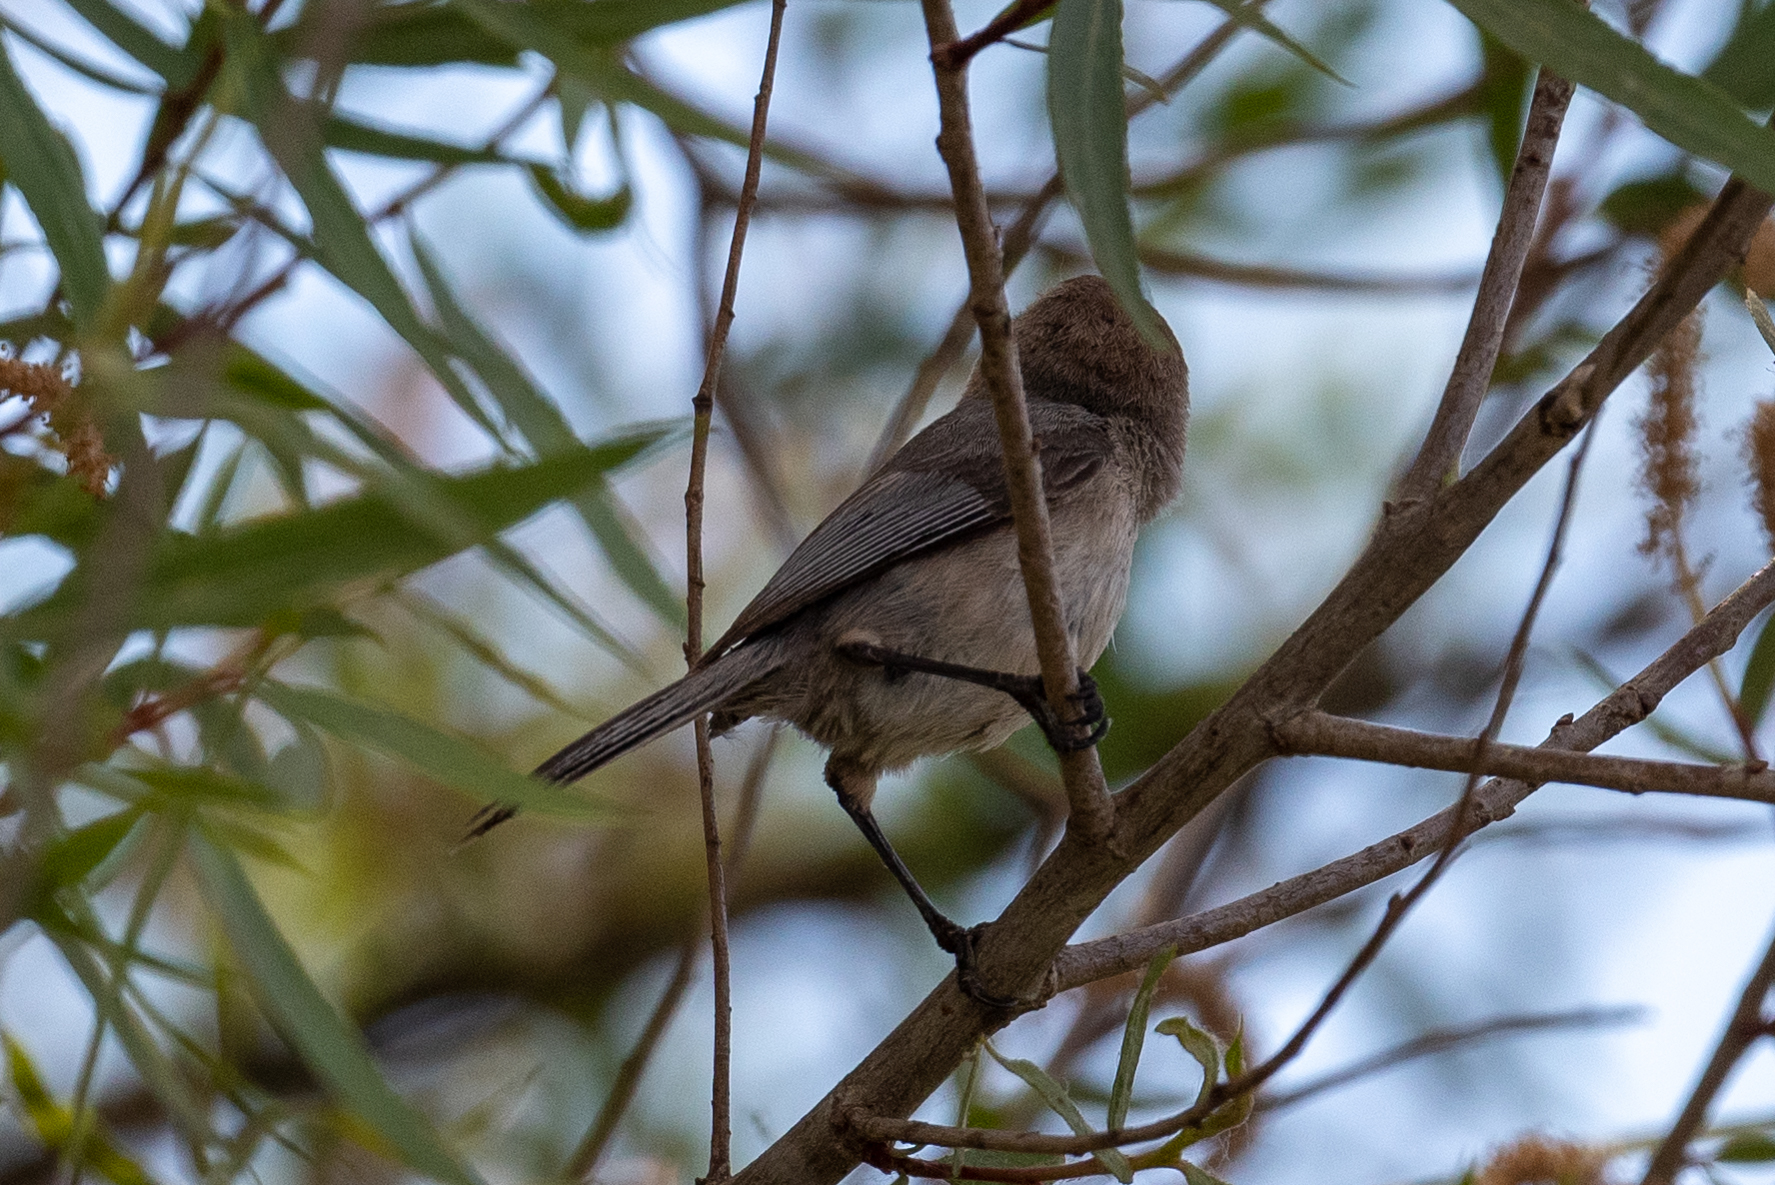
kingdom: Animalia
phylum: Chordata
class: Aves
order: Passeriformes
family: Aegithalidae
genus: Psaltriparus
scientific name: Psaltriparus minimus
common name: American bushtit
